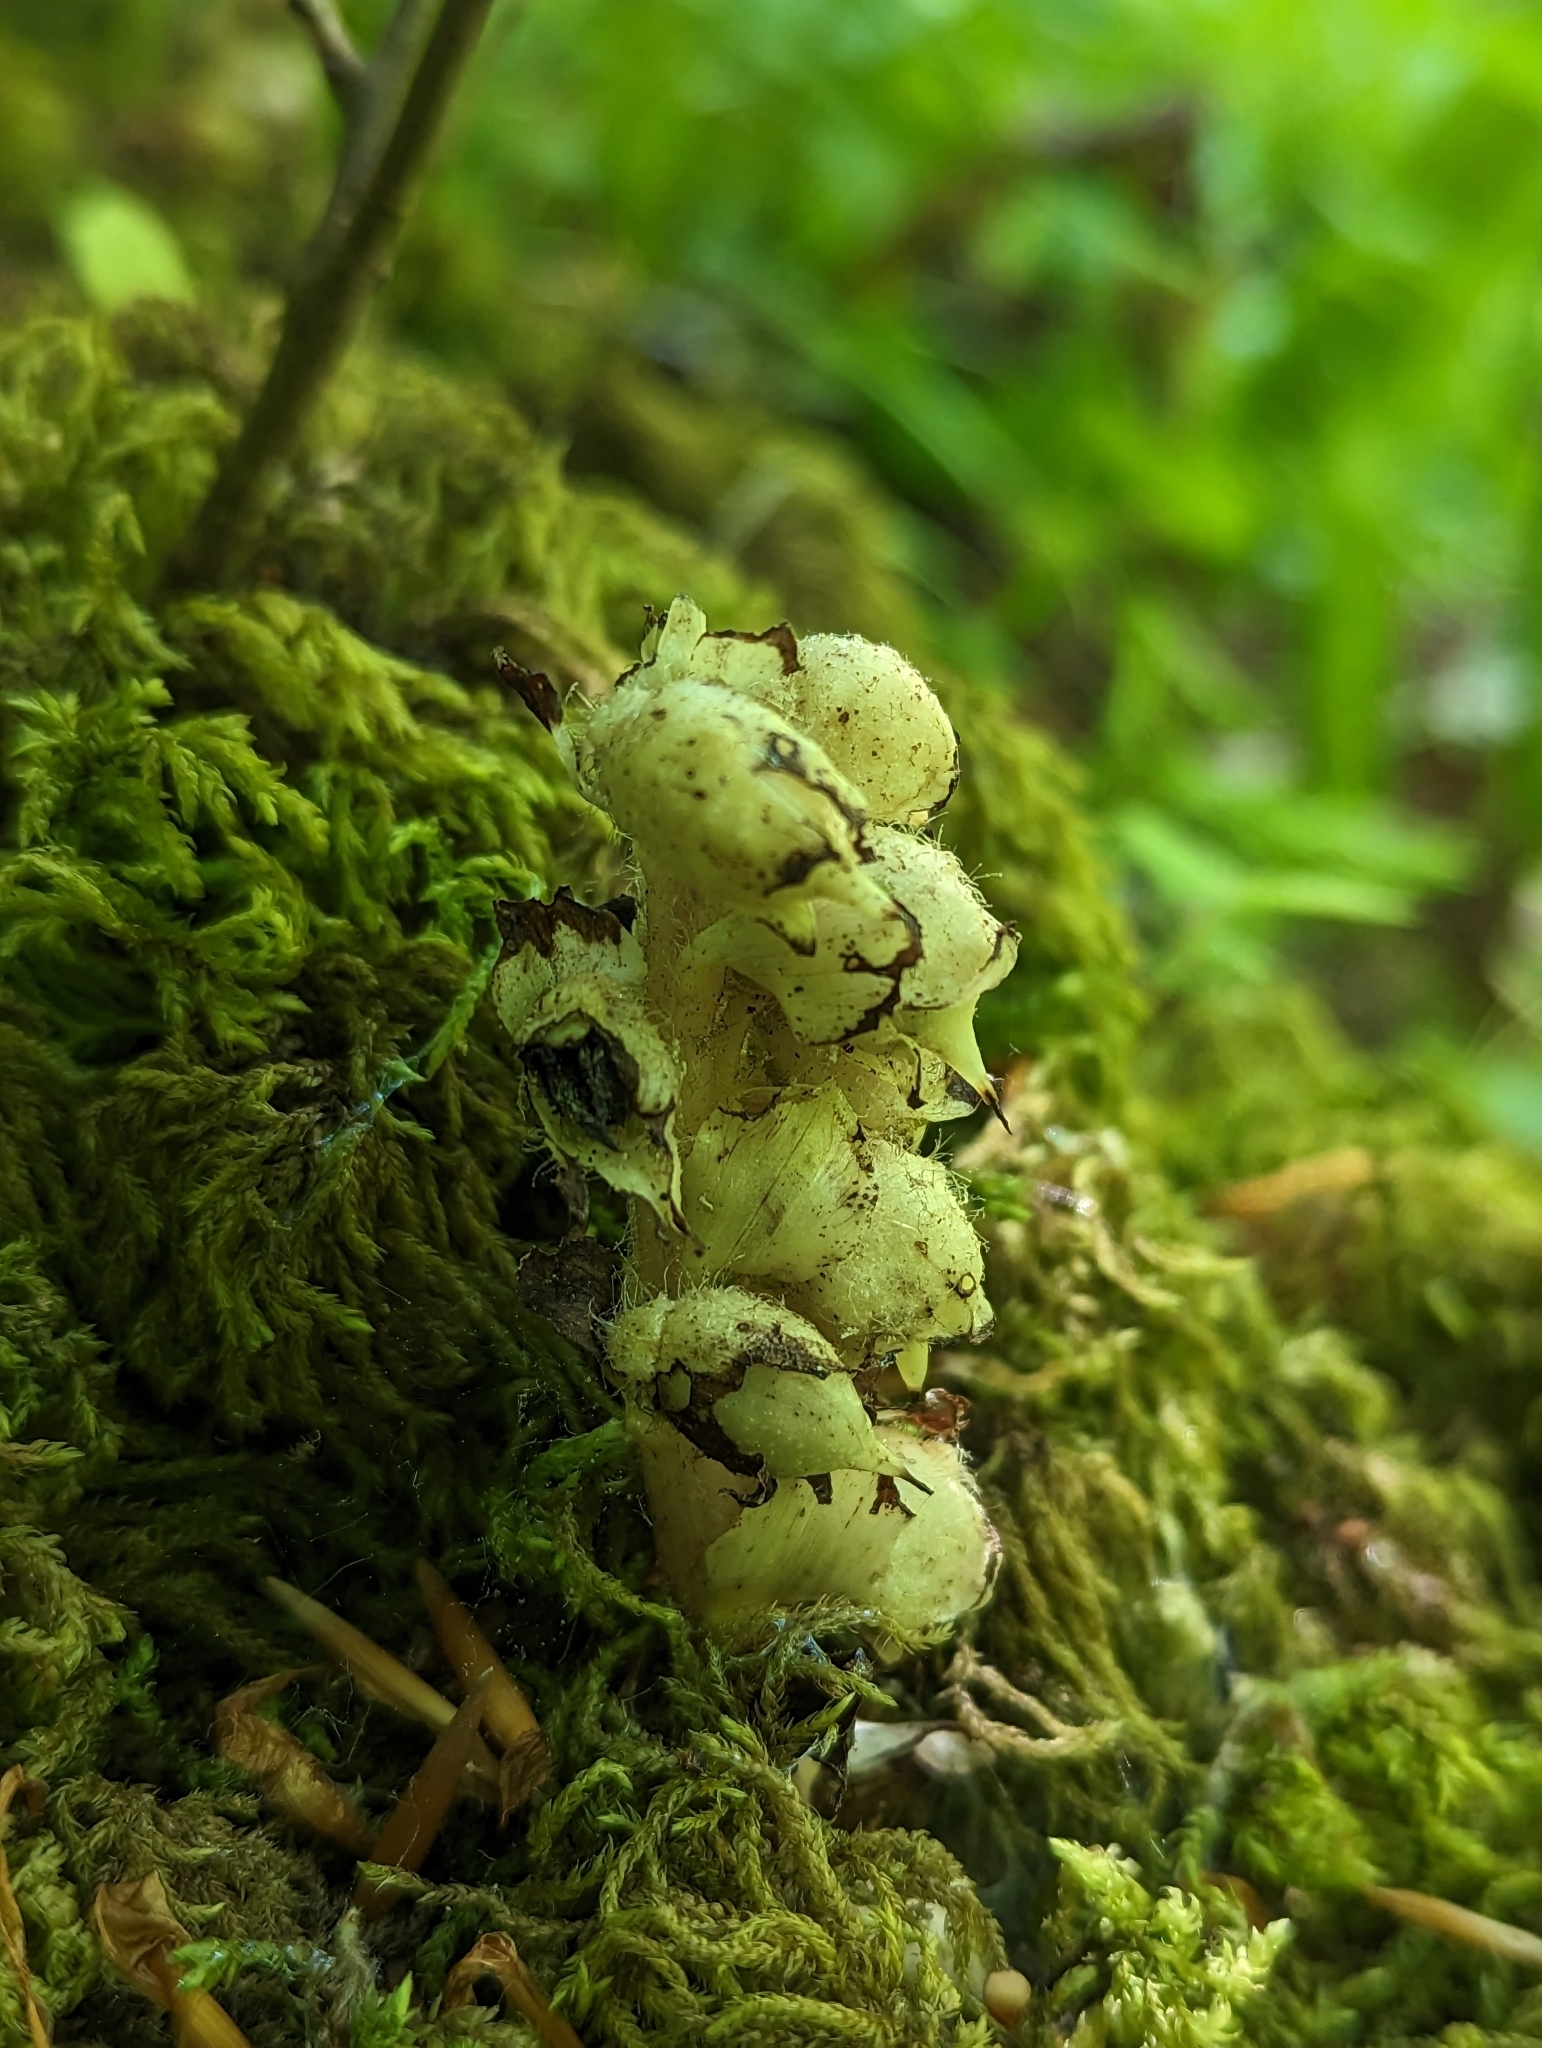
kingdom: Plantae
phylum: Tracheophyta
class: Magnoliopsida
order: Lamiales
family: Orobanchaceae
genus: Lathraea
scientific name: Lathraea squamaria
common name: Toothwort
